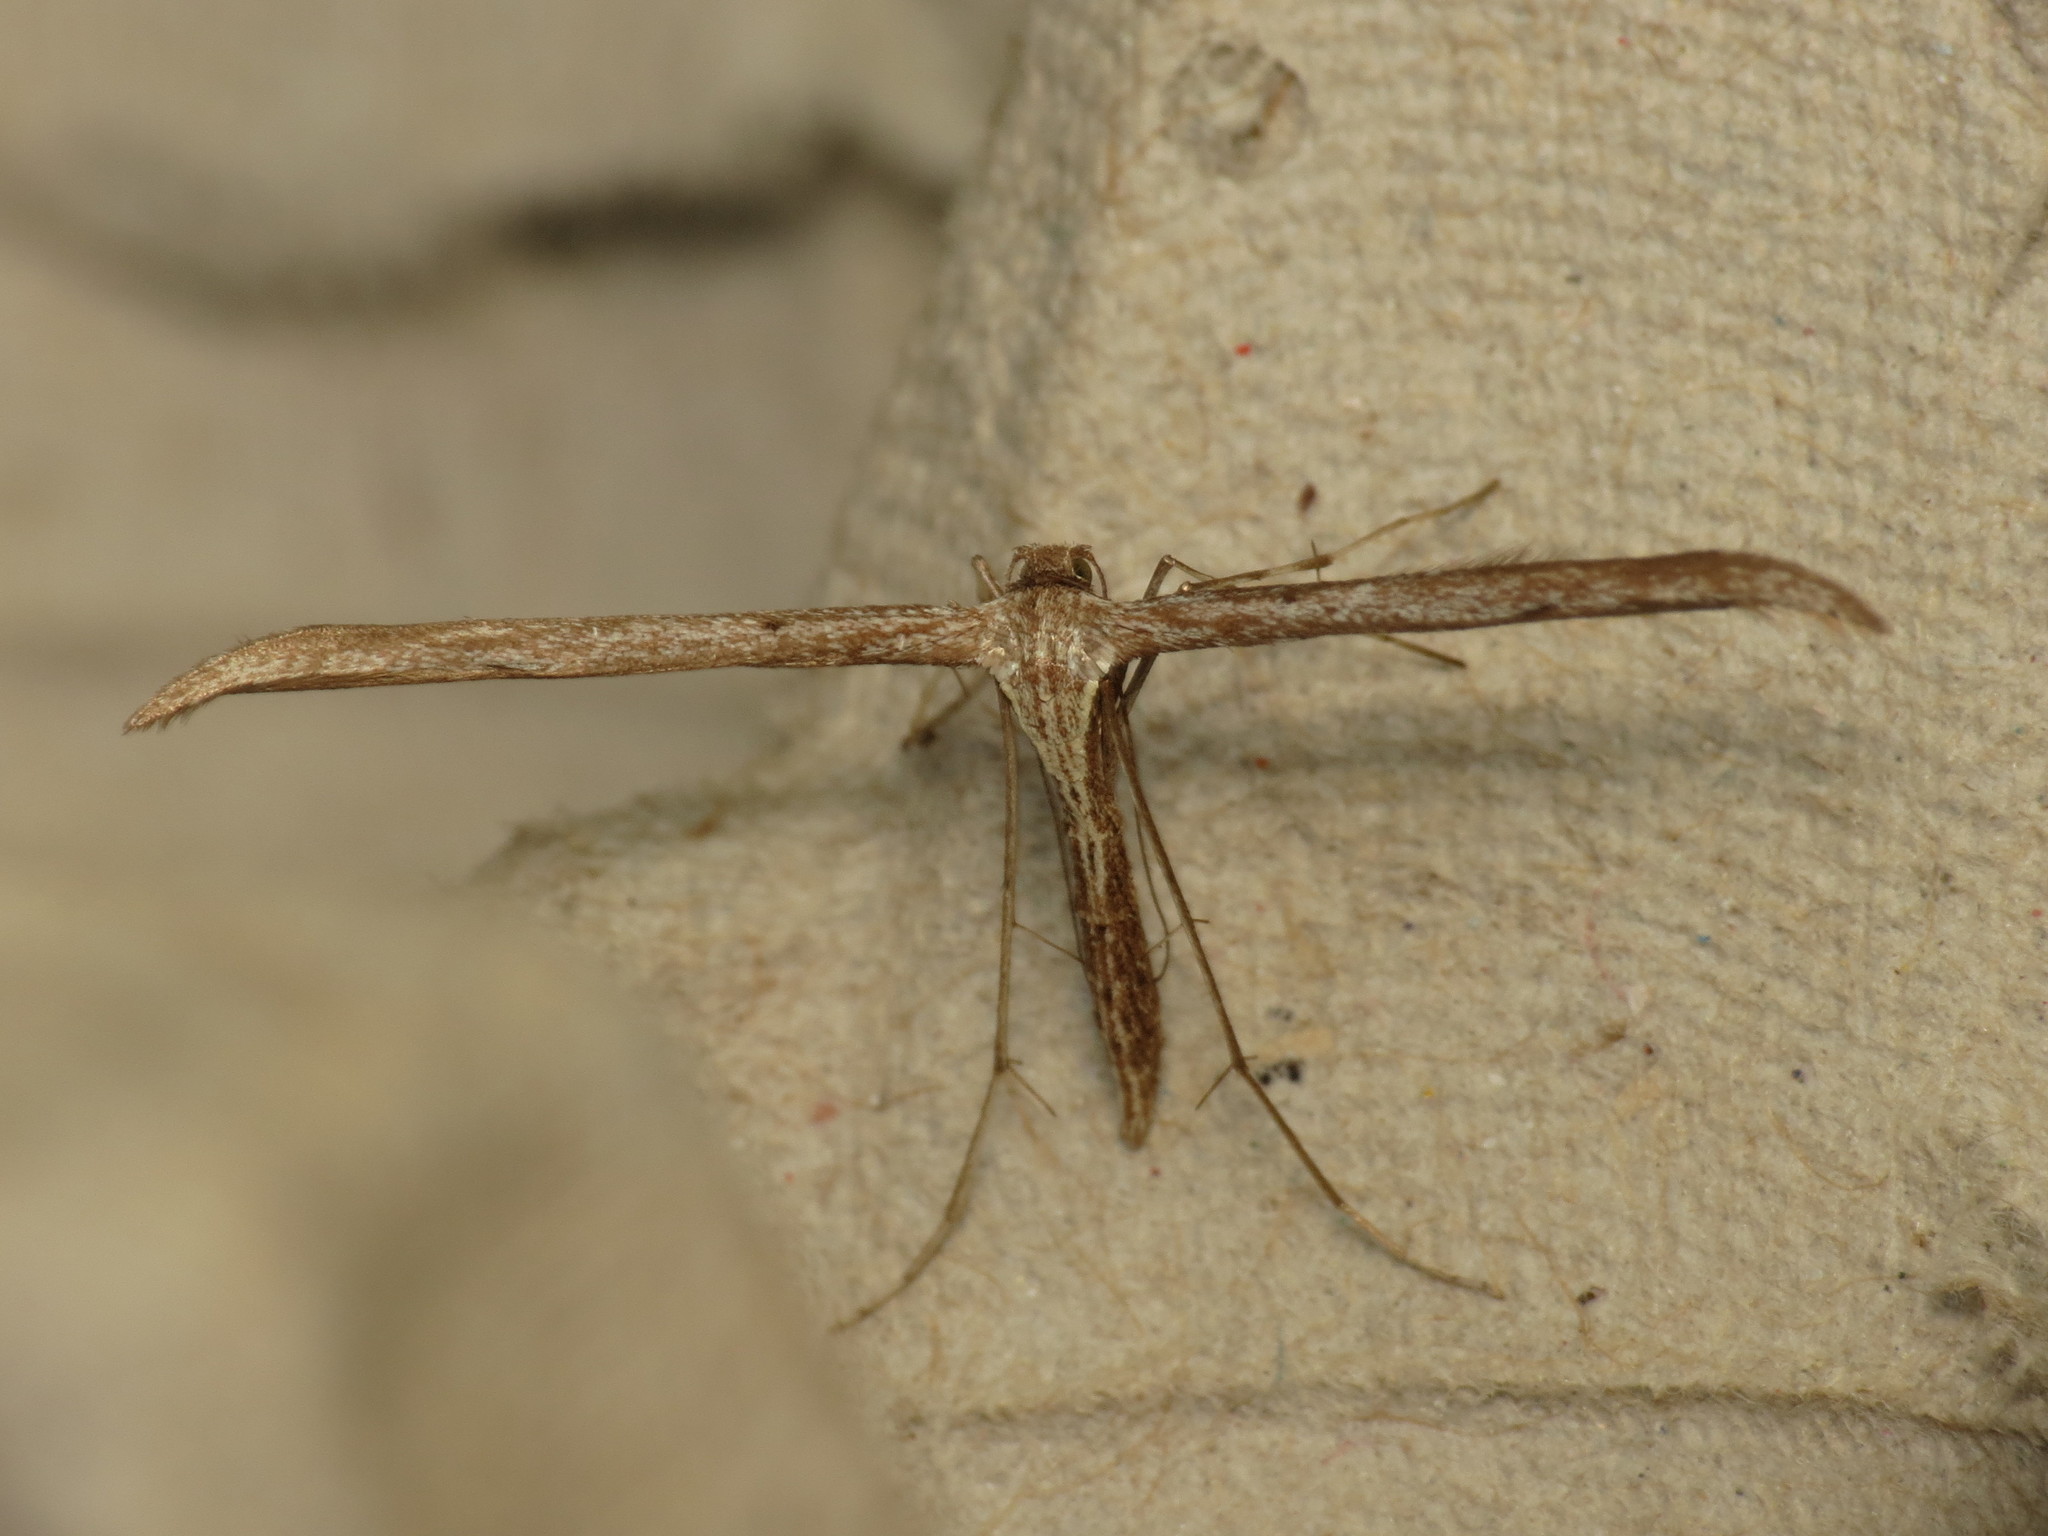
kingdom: Animalia
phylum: Arthropoda
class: Insecta
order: Lepidoptera
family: Pterophoridae
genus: Emmelina
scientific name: Emmelina monodactyla
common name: Common plume
